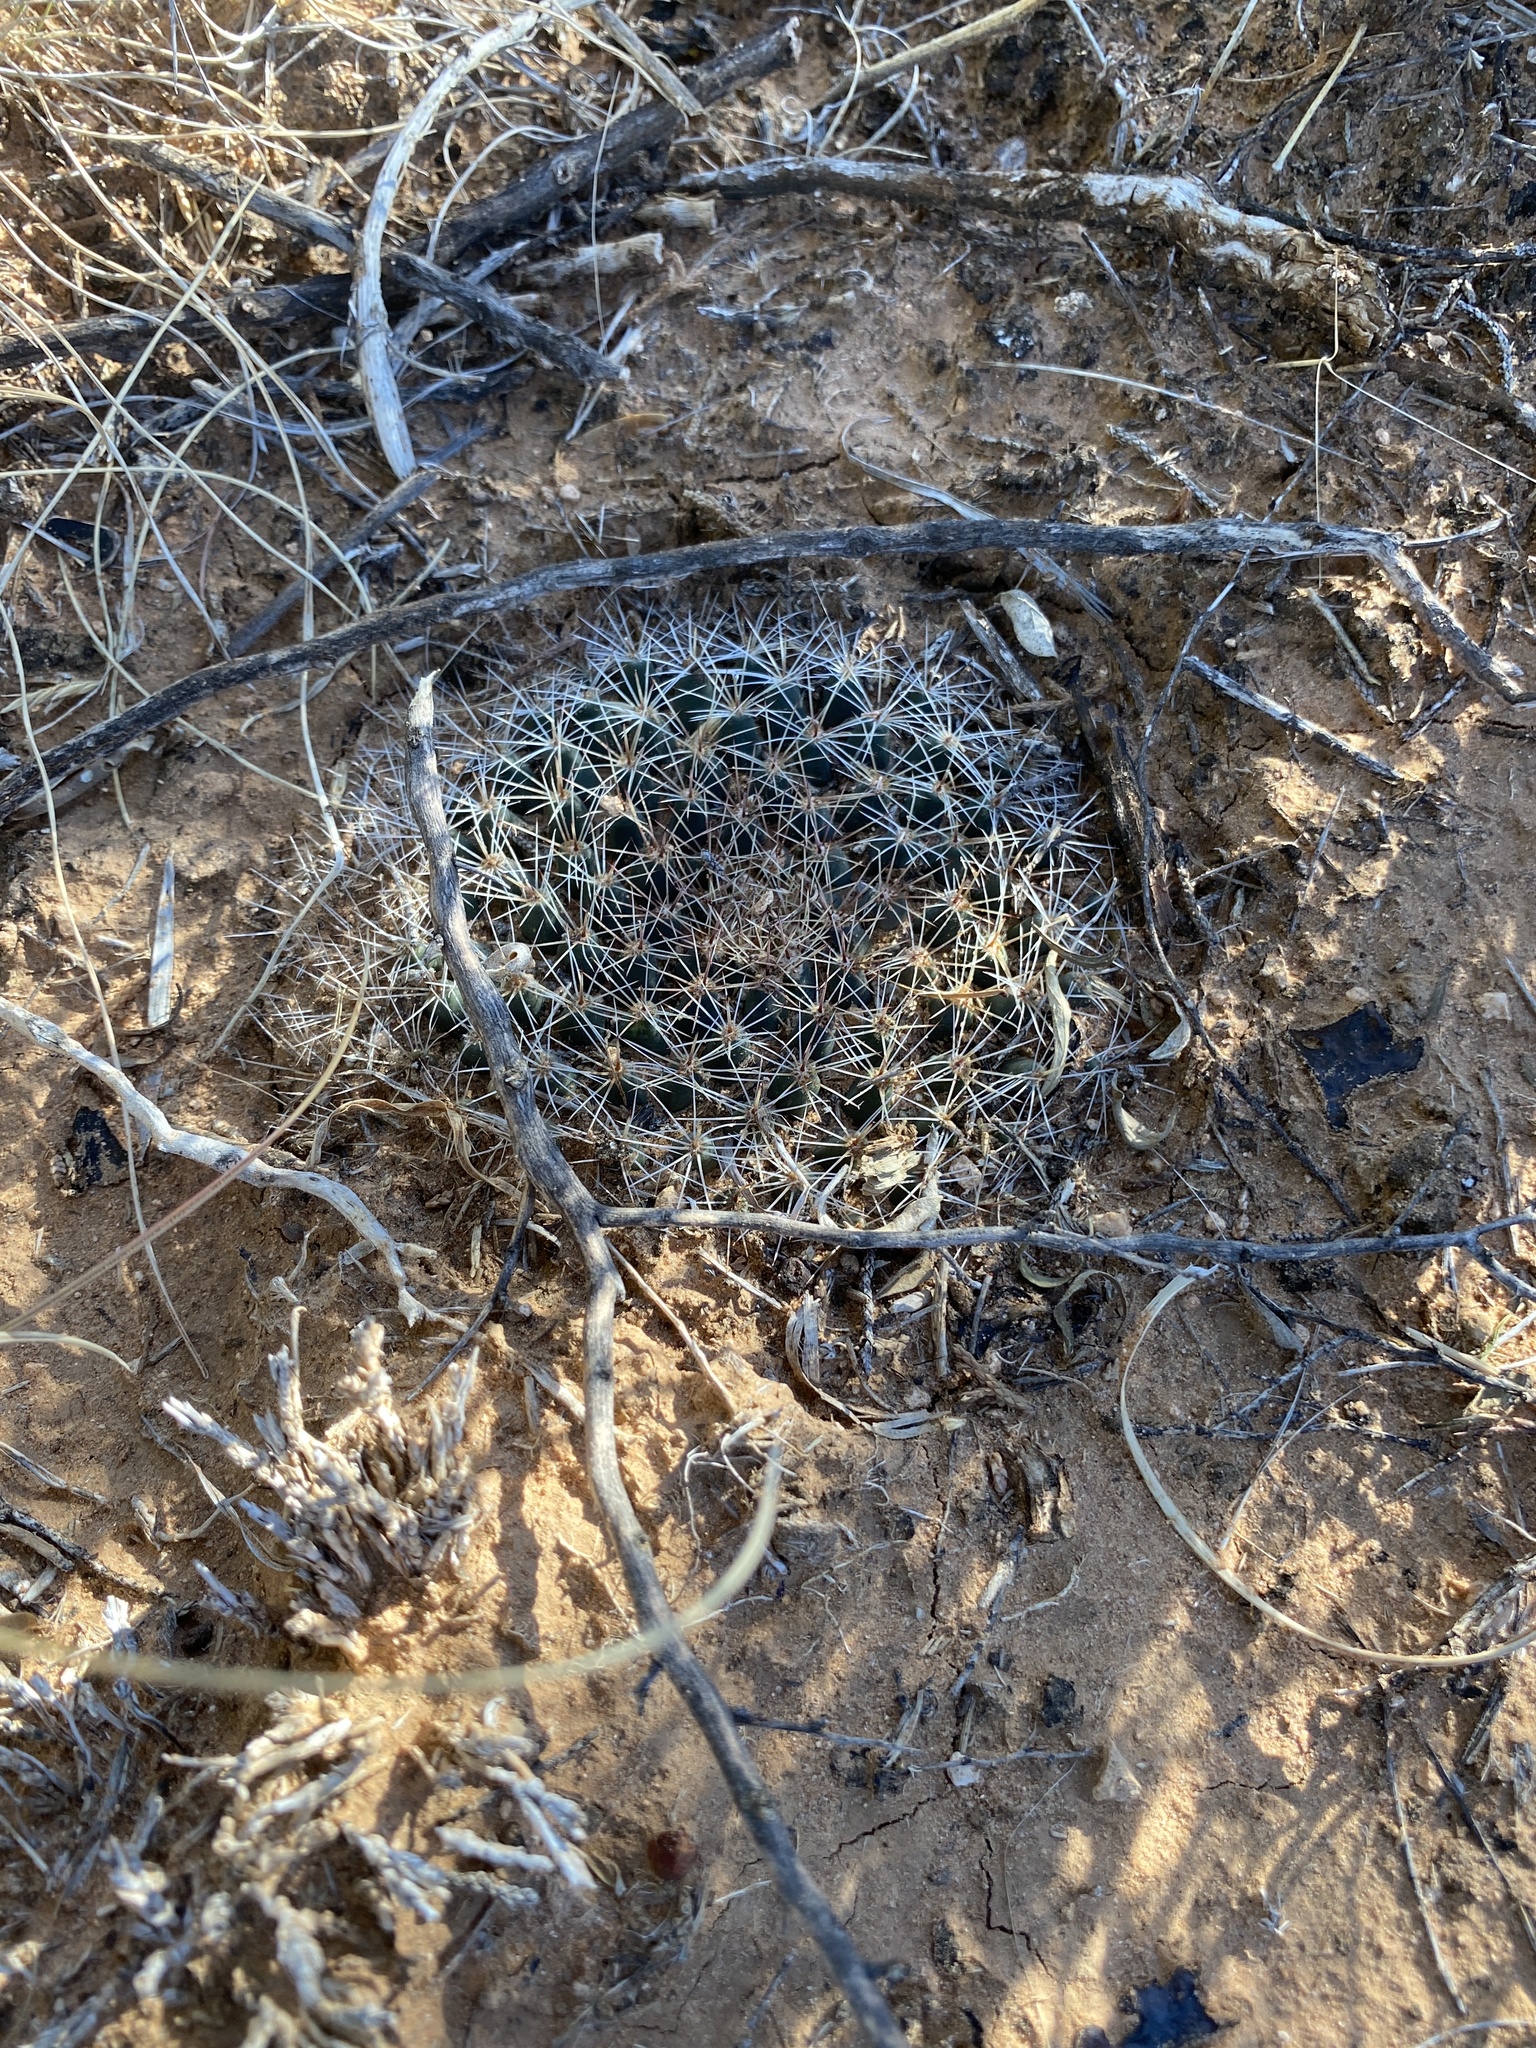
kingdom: Plantae
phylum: Tracheophyta
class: Magnoliopsida
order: Caryophyllales
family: Cactaceae
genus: Mammillaria
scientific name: Mammillaria heyderi
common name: Little nipple cactus
